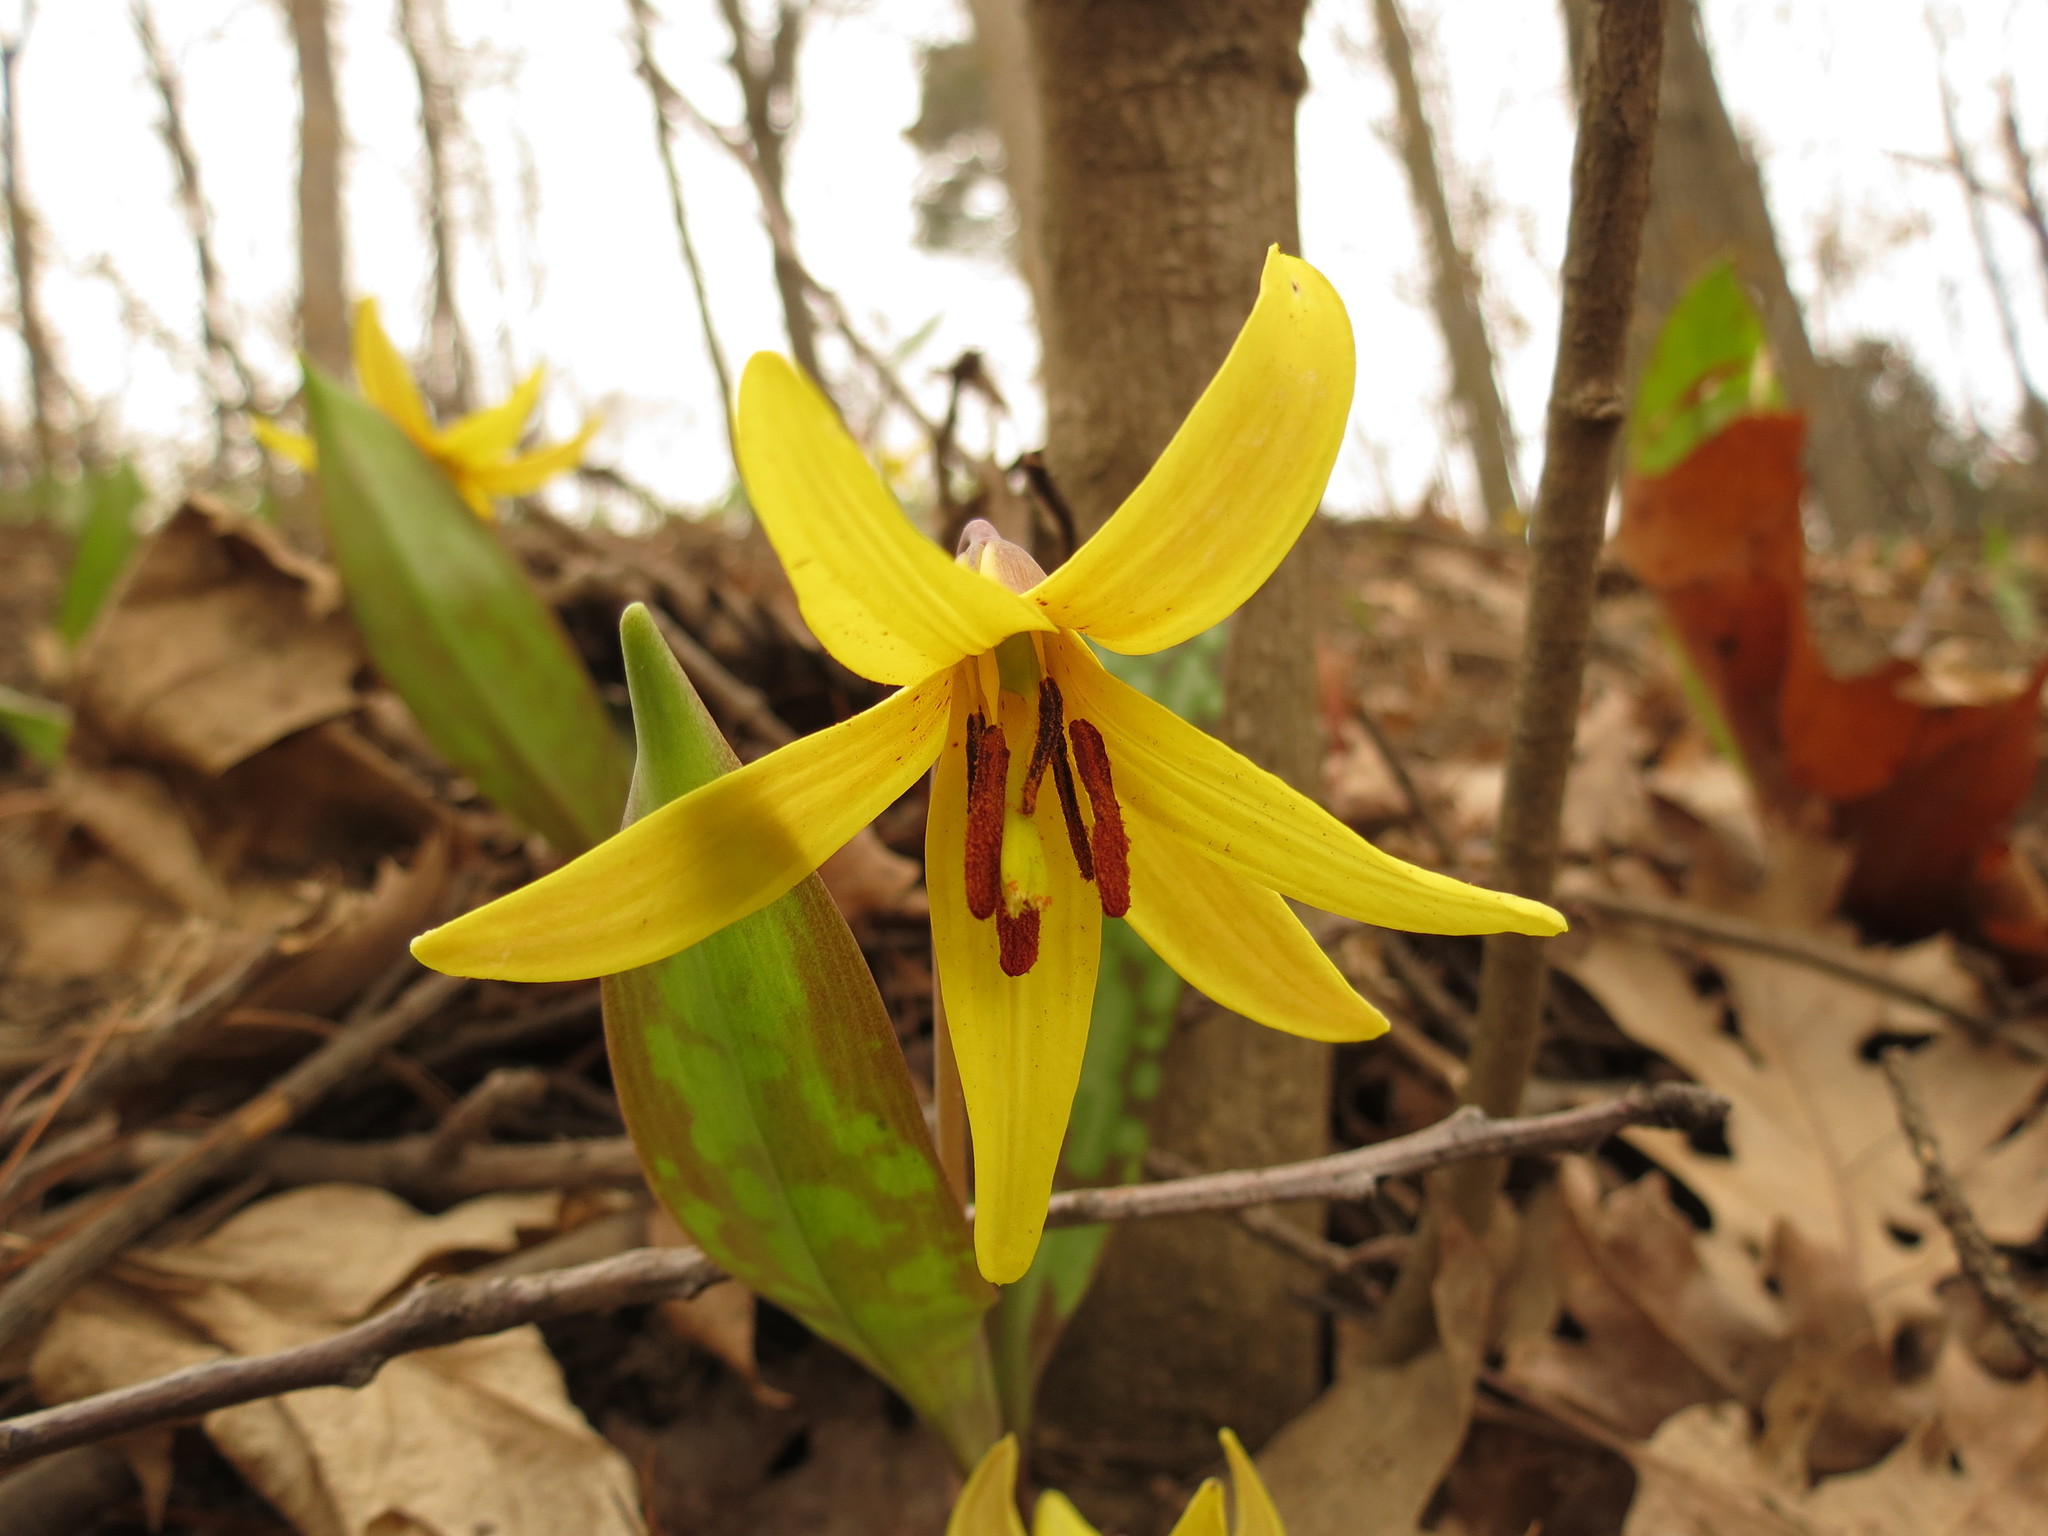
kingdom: Plantae
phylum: Tracheophyta
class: Liliopsida
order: Liliales
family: Liliaceae
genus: Erythronium
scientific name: Erythronium americanum
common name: Yellow adder's-tongue
